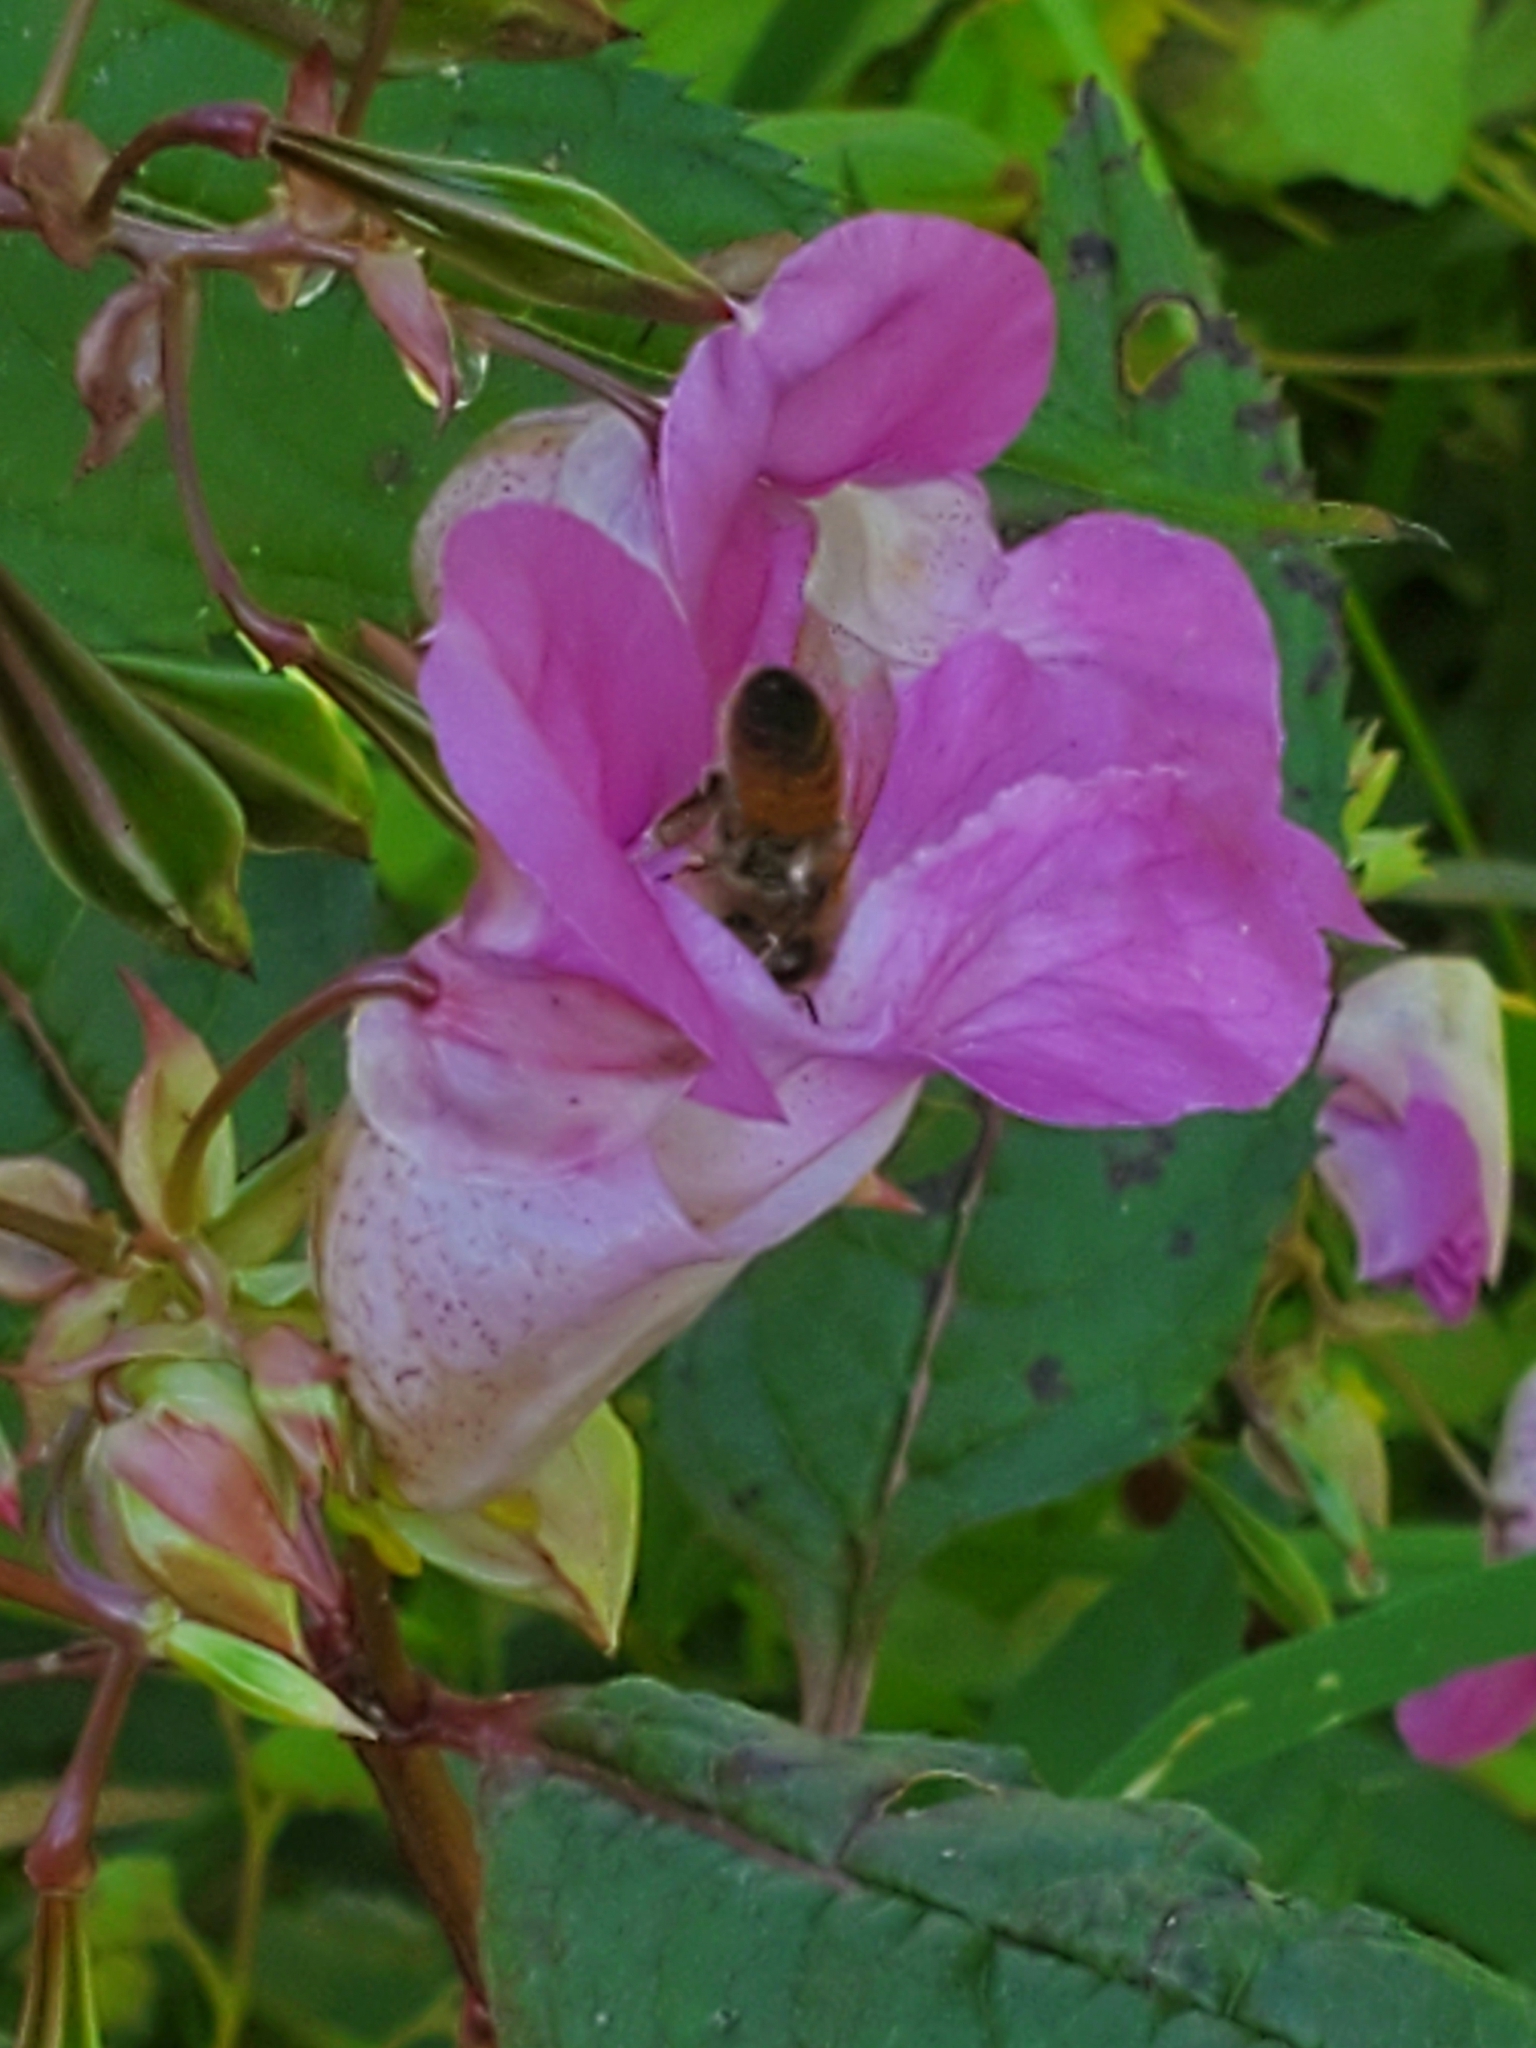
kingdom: Animalia
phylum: Arthropoda
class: Insecta
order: Hymenoptera
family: Apidae
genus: Apis
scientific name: Apis mellifera
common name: Honey bee
